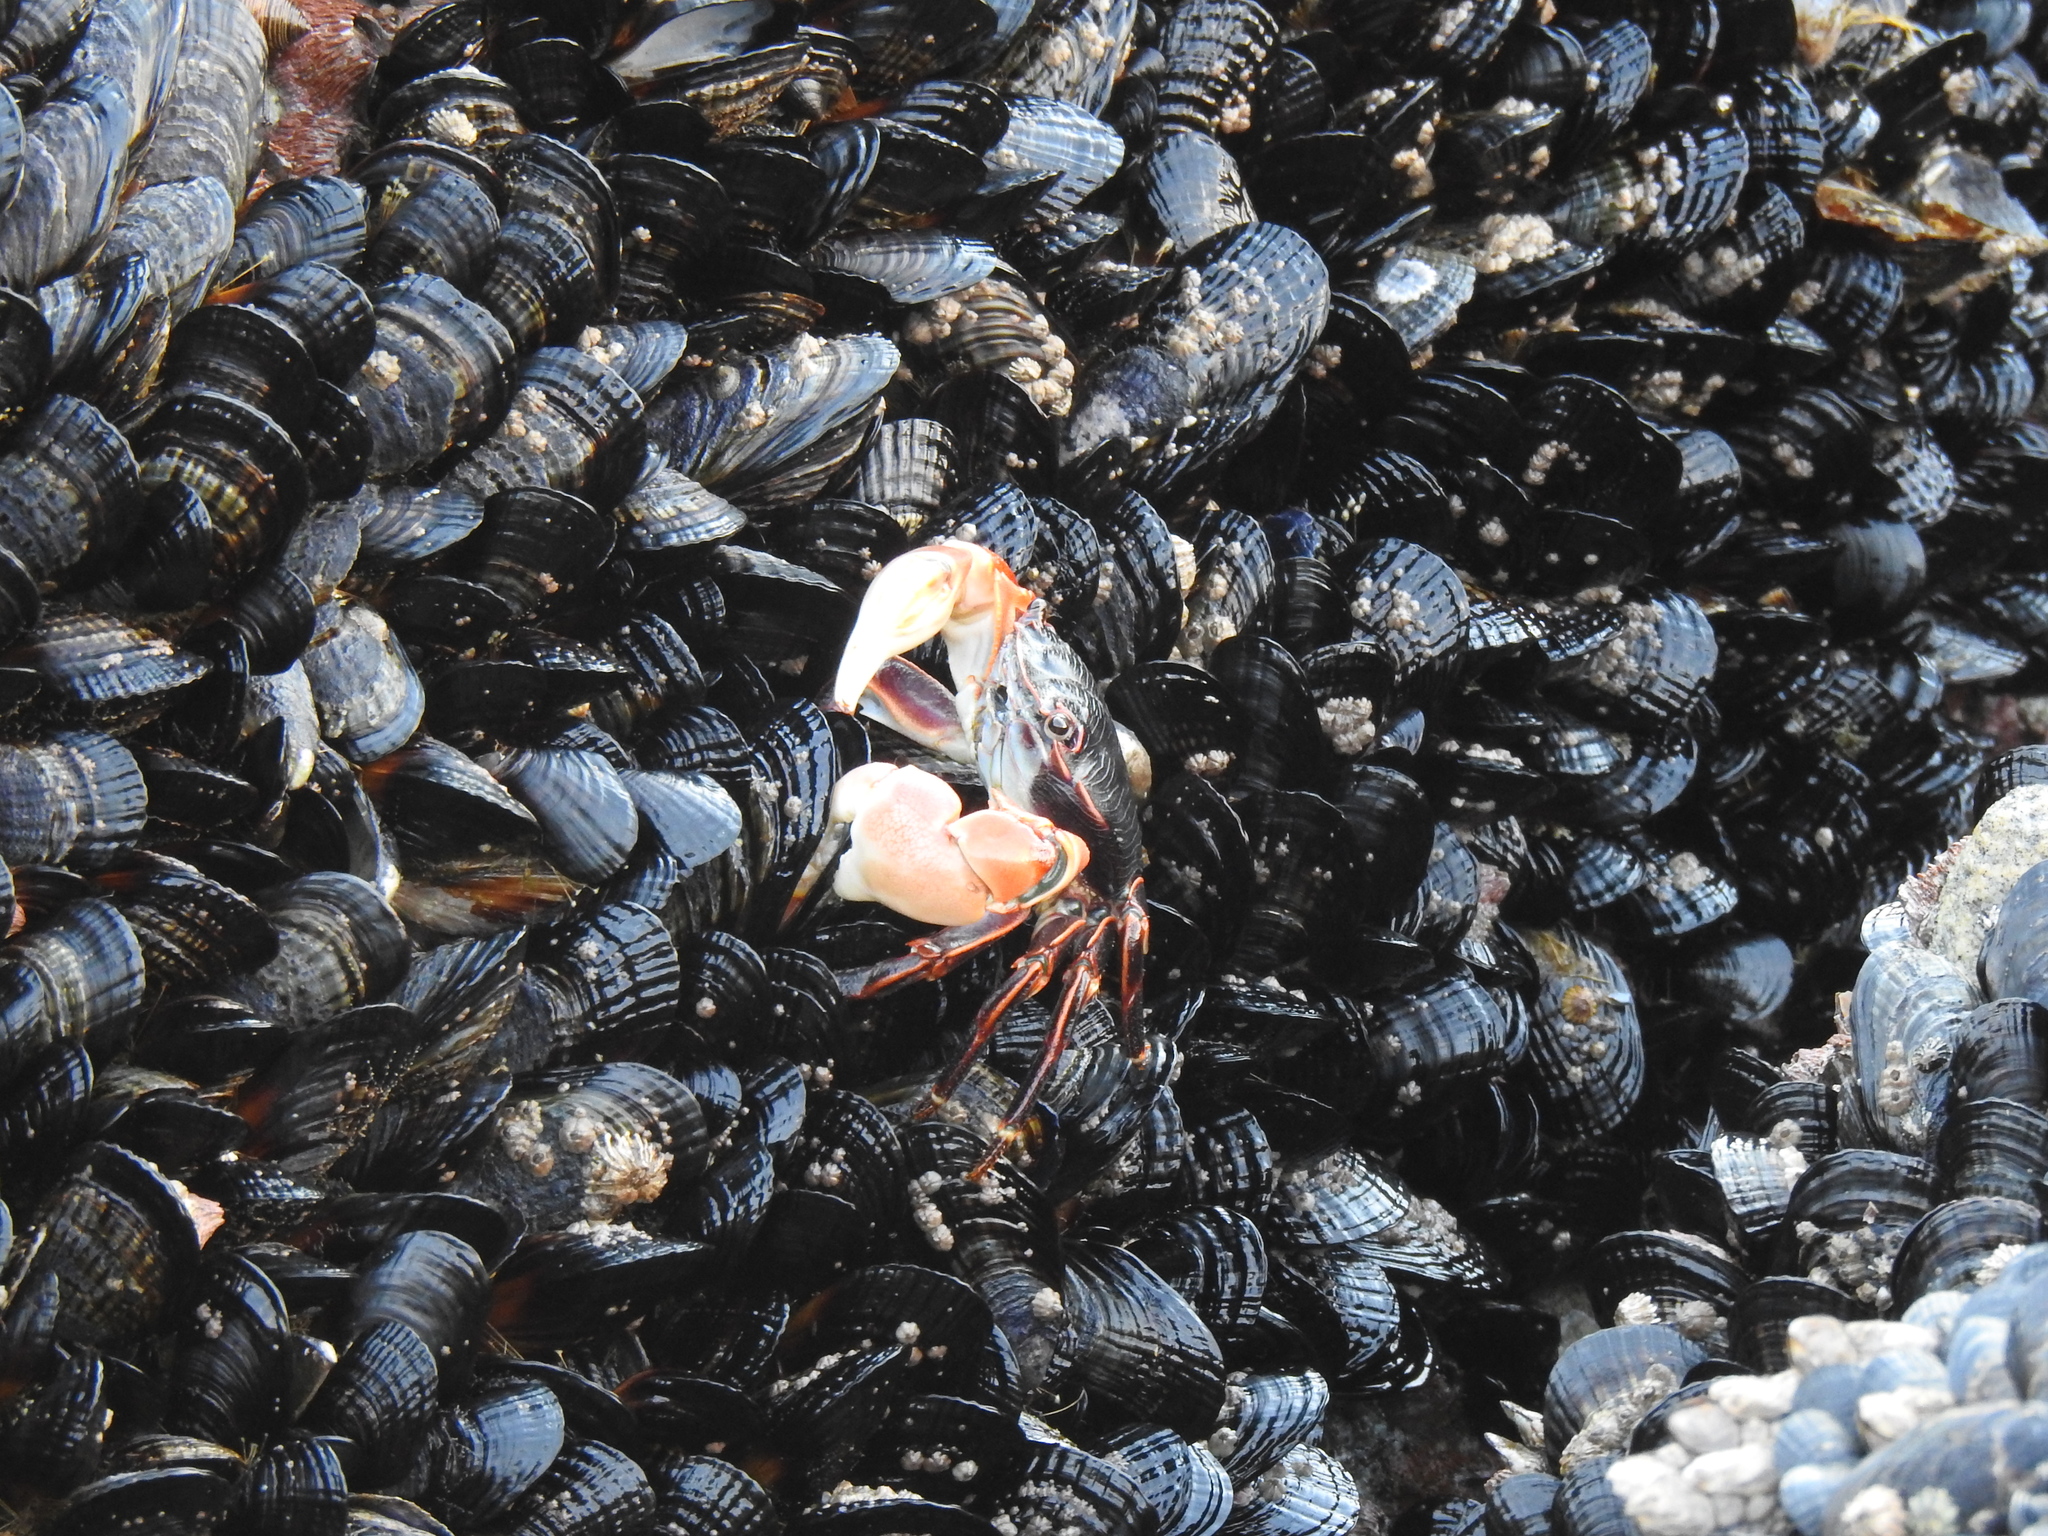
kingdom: Animalia
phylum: Arthropoda
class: Malacostraca
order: Decapoda
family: Grapsidae
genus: Pachygrapsus
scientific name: Pachygrapsus crassipes
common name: Striped shore crab
